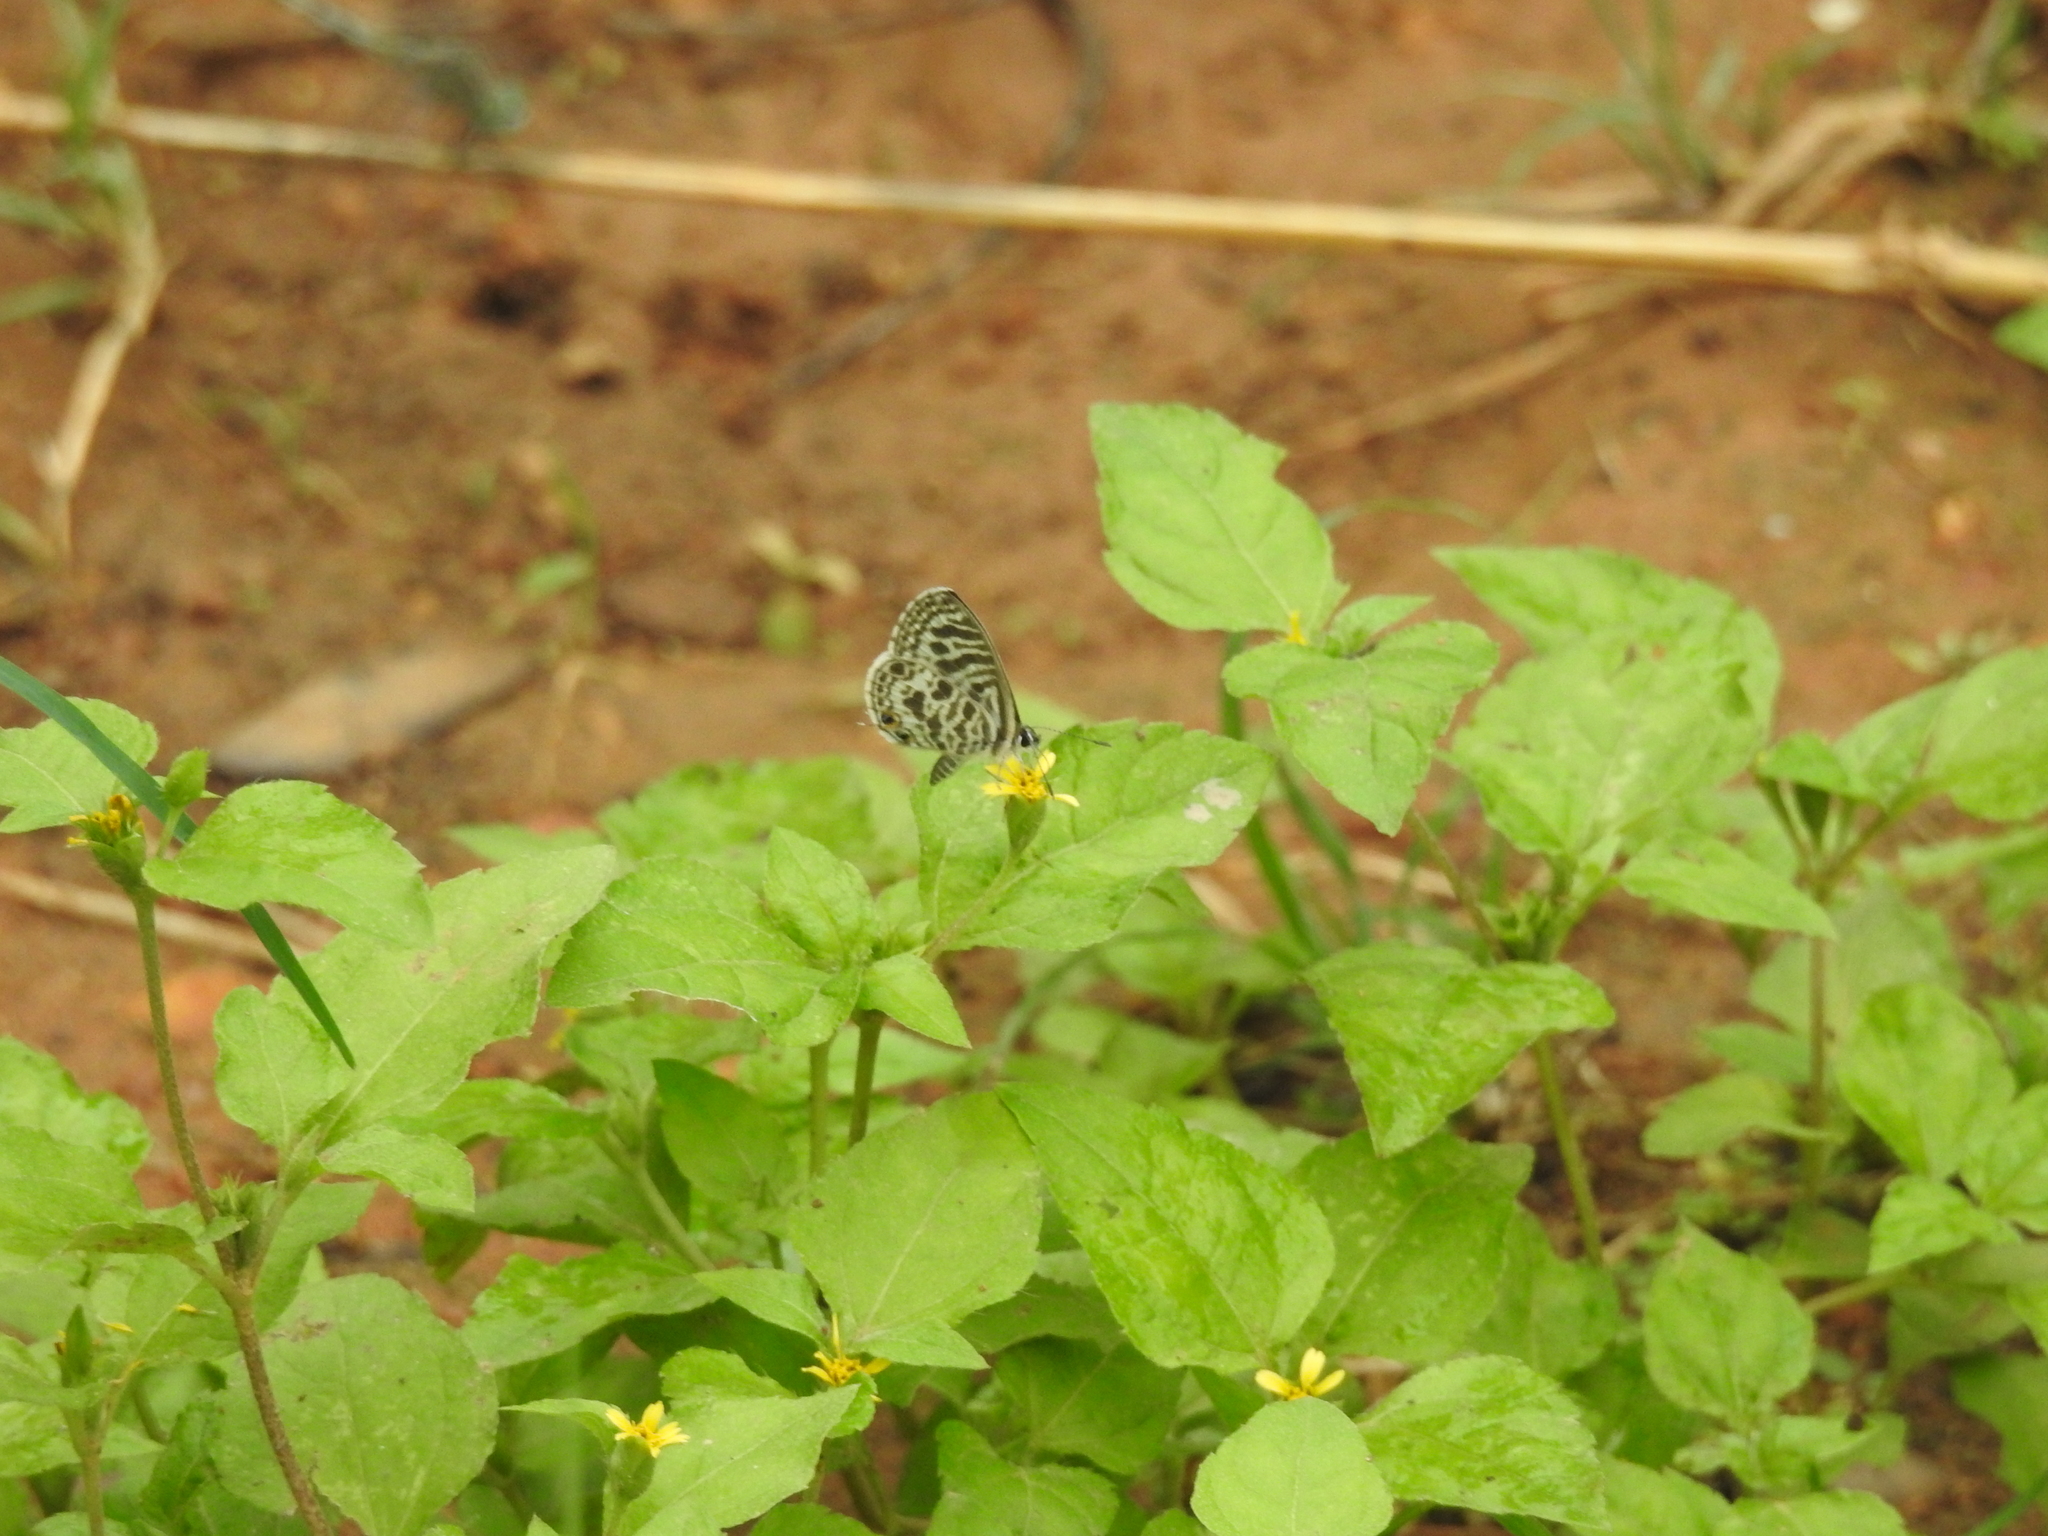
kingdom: Animalia
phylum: Arthropoda
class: Insecta
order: Lepidoptera
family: Lycaenidae
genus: Leptotes
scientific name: Leptotes plinius
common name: Zebra blue
